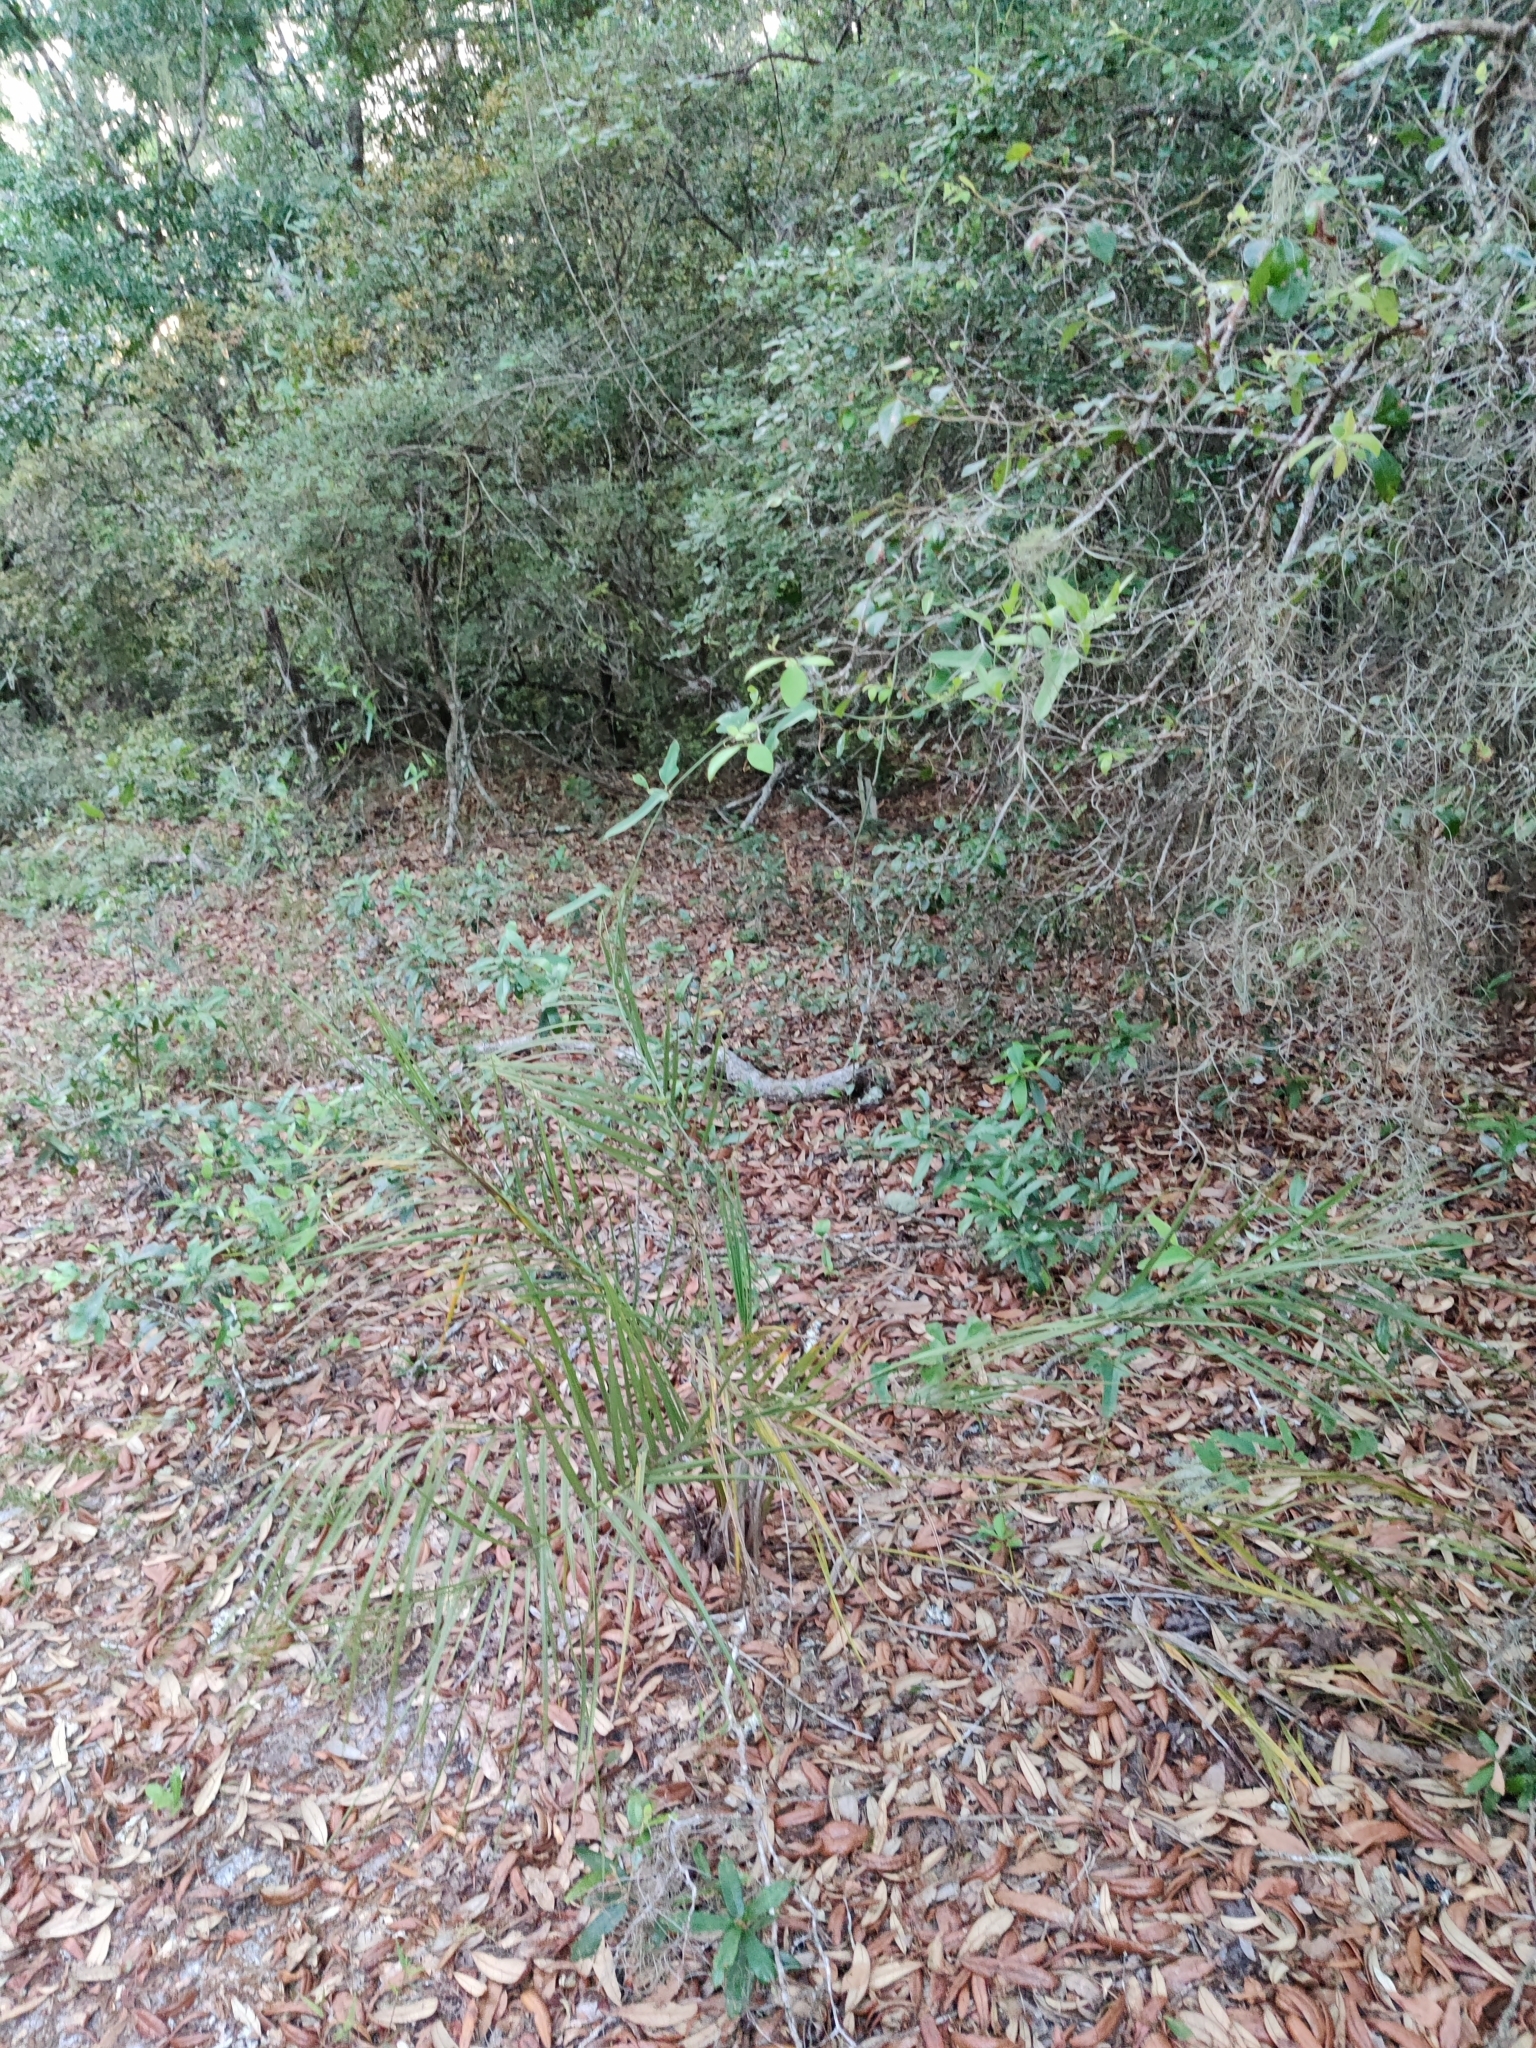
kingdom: Plantae
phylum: Tracheophyta
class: Liliopsida
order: Arecales
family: Arecaceae
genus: Butia
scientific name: Butia capitata
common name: South american jelly palm
